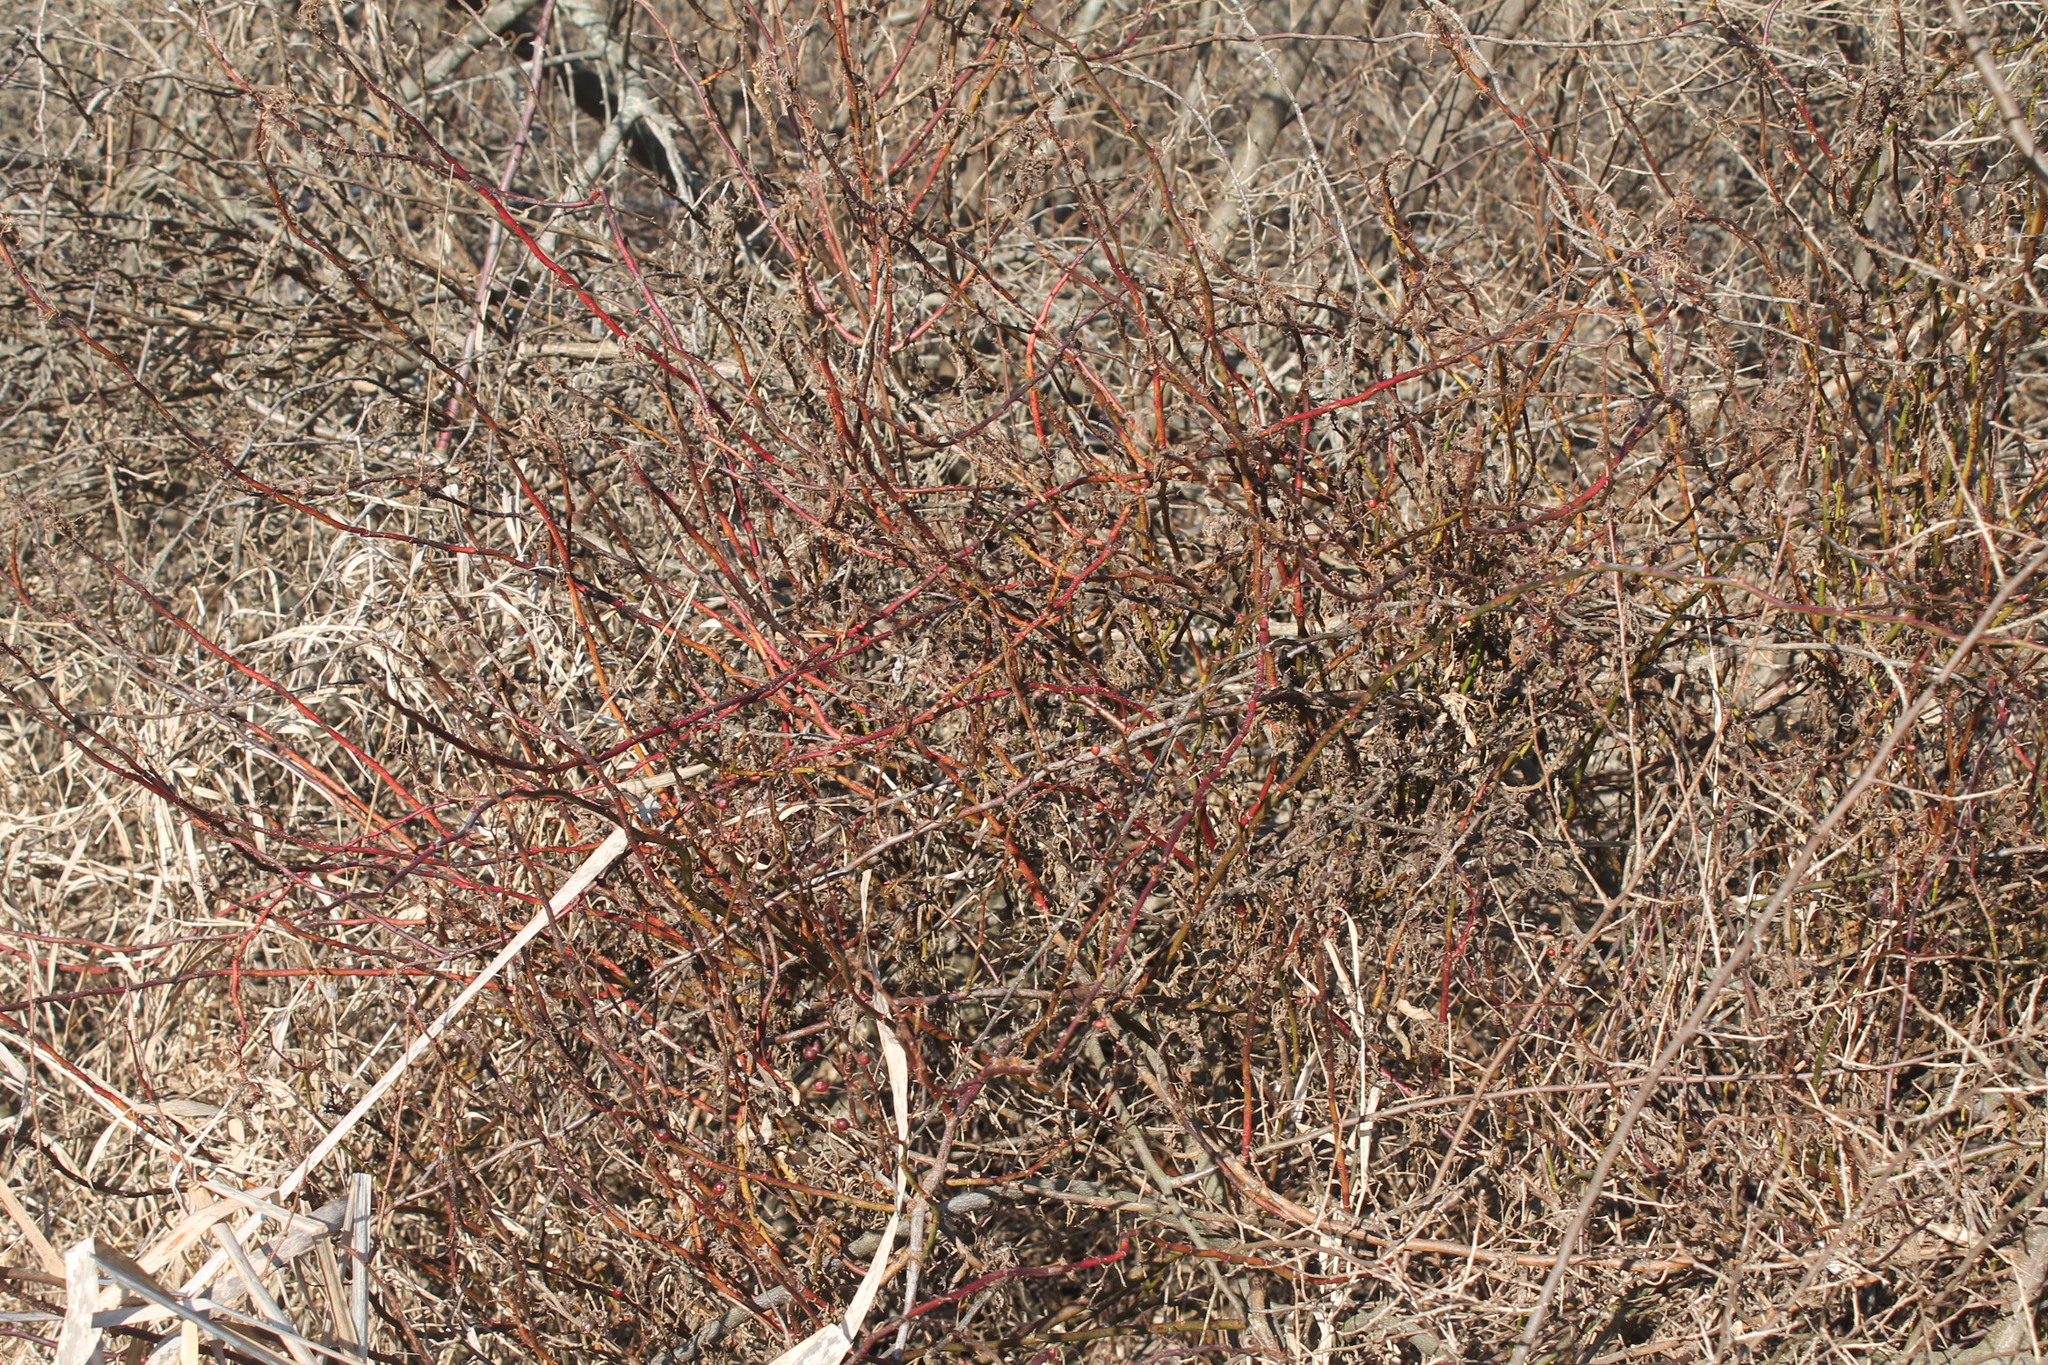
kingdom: Viruses
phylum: Negarnaviricota
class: Ellioviricetes
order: Bunyavirales
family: Fimoviridae
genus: Emaravirus
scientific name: Emaravirus rosae
